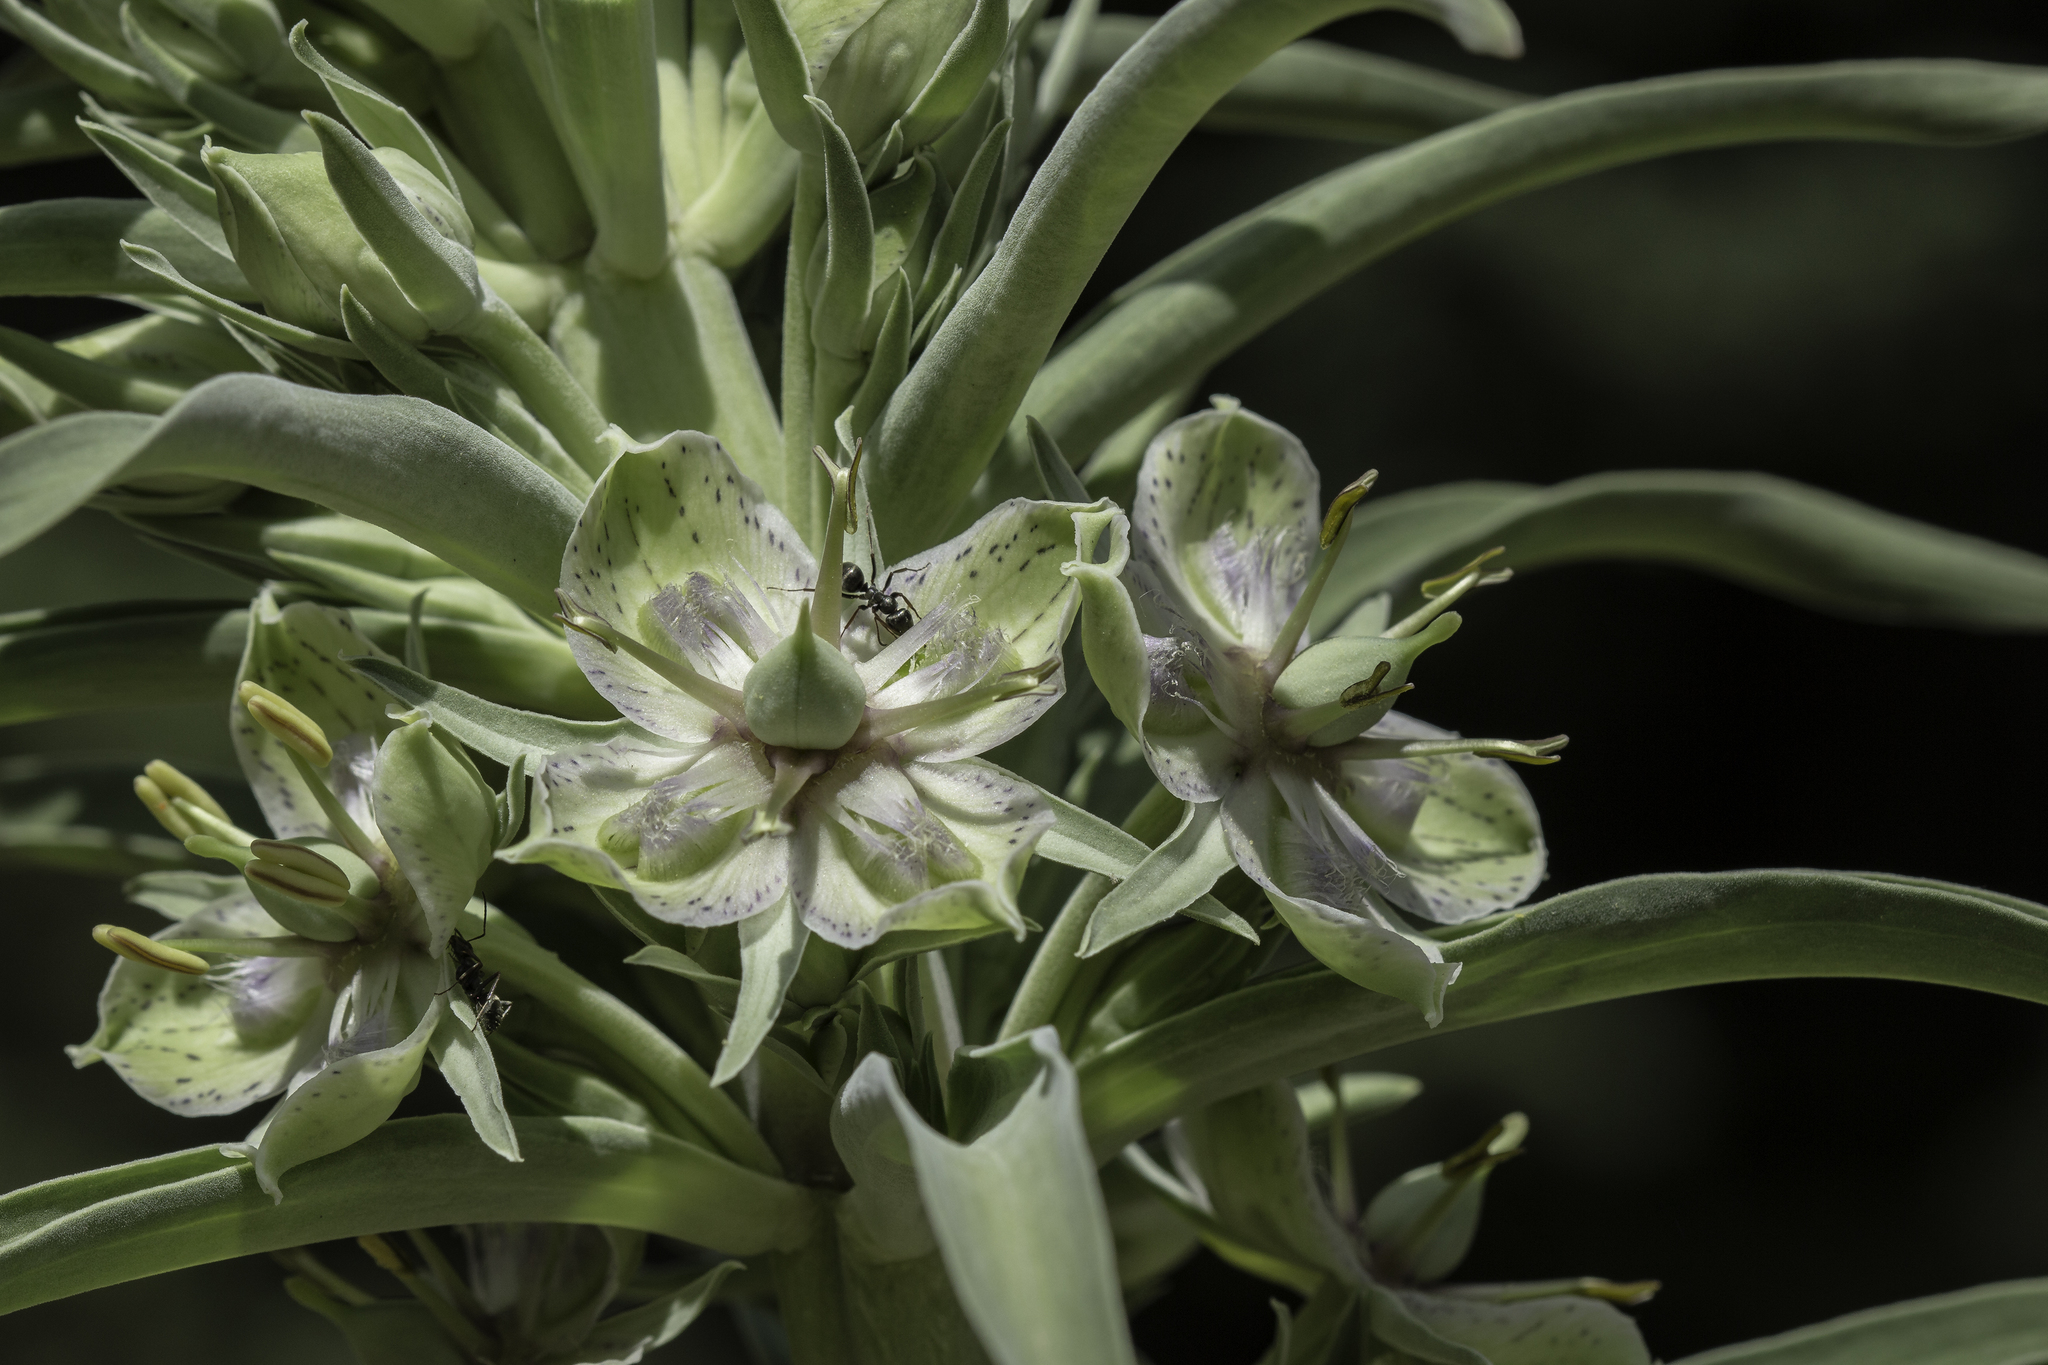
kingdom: Plantae
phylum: Tracheophyta
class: Magnoliopsida
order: Gentianales
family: Gentianaceae
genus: Frasera
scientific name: Frasera speciosa
